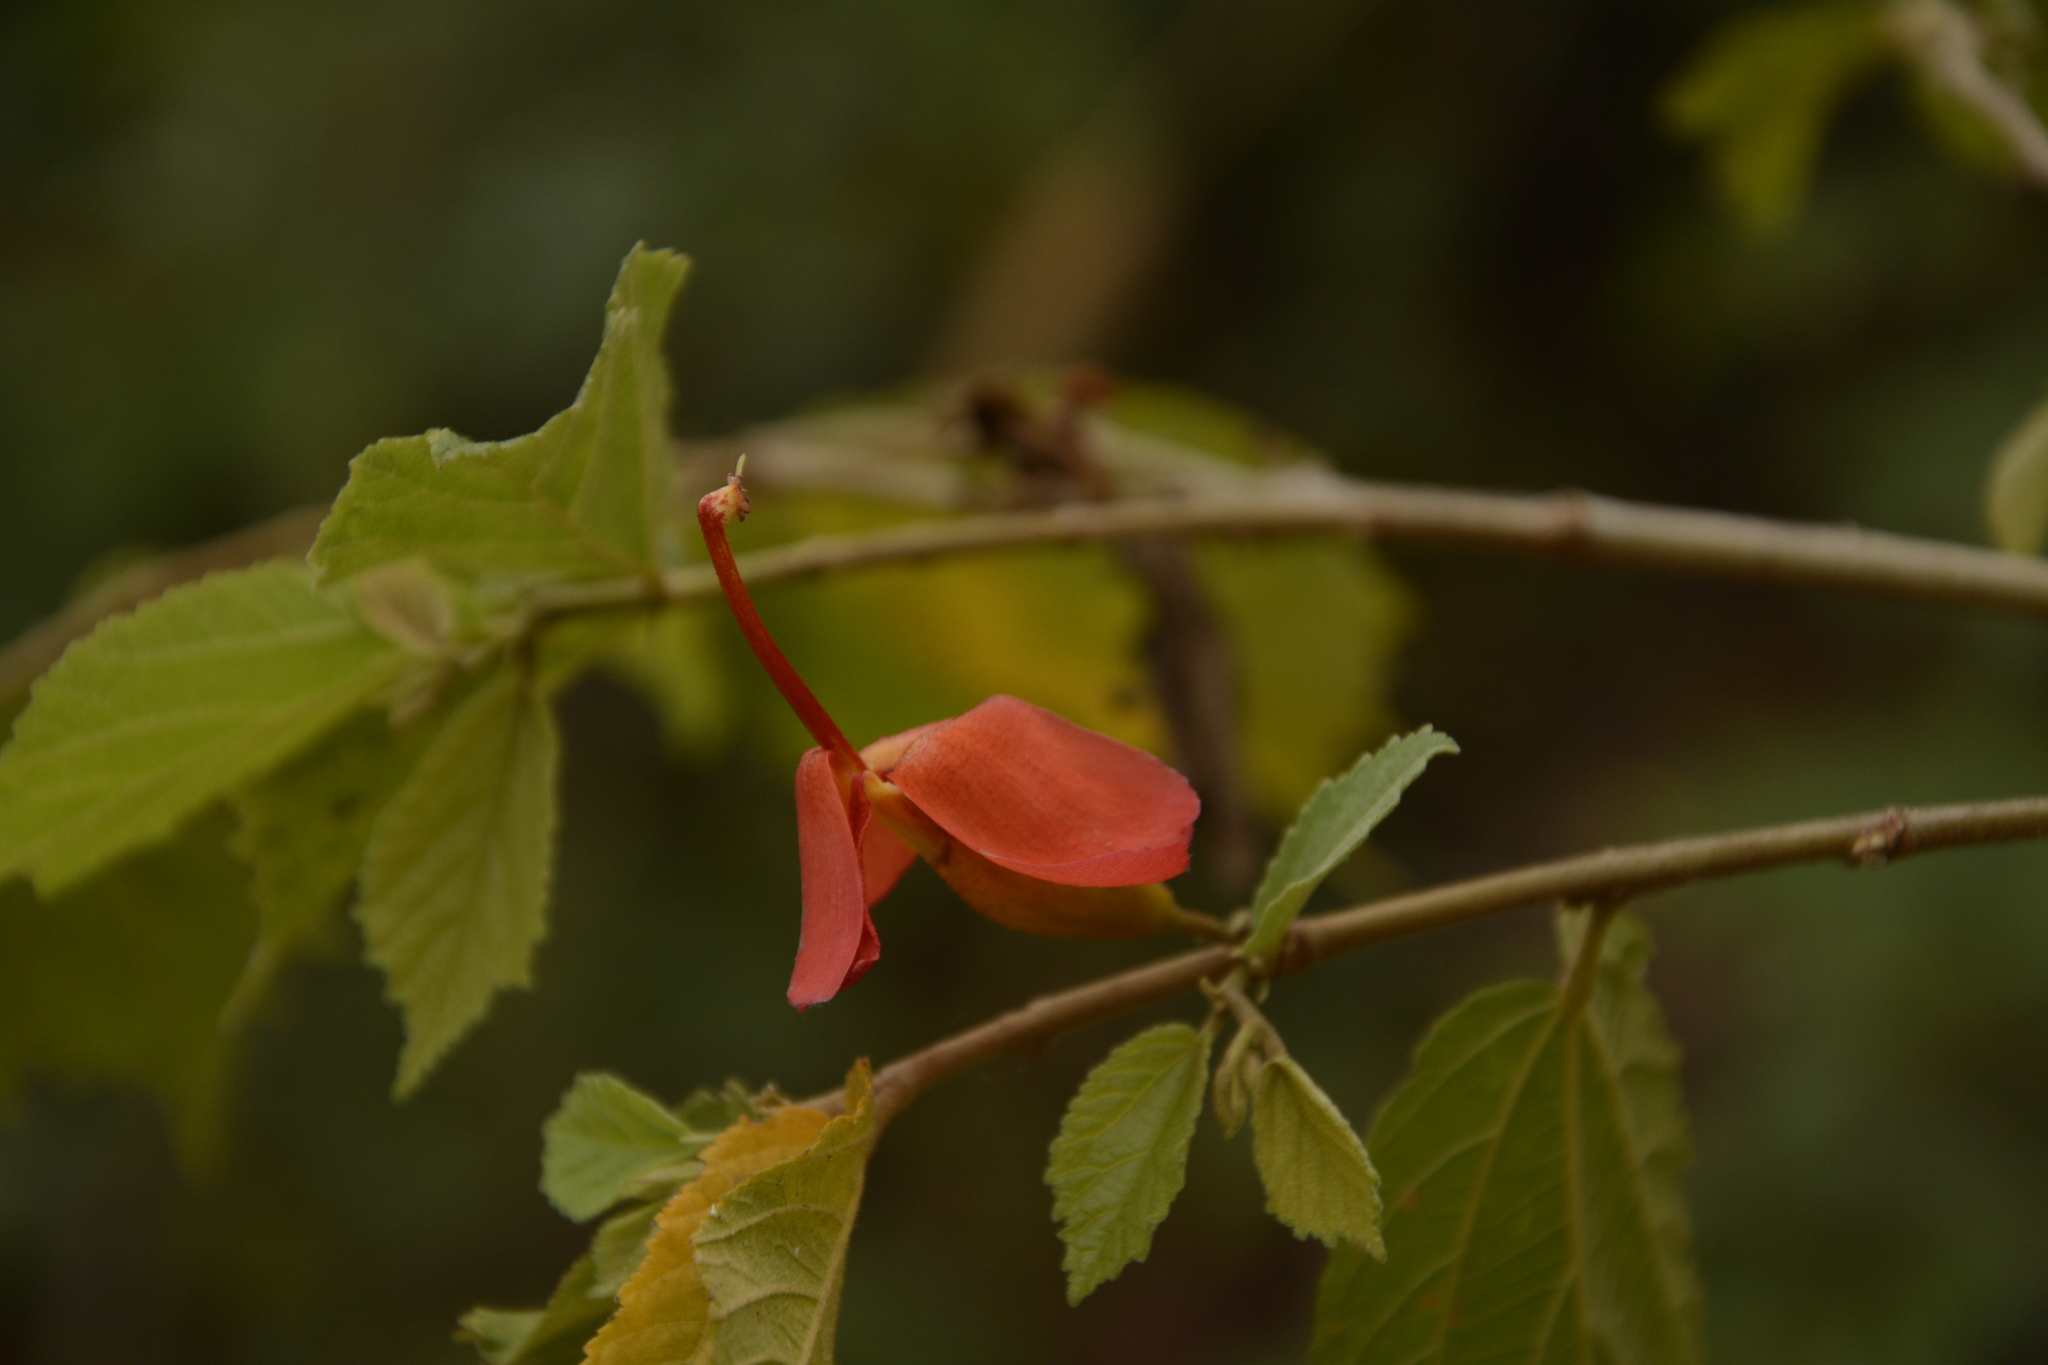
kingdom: Plantae
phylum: Tracheophyta
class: Magnoliopsida
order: Malvales
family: Malvaceae
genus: Helicteres
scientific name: Helicteres isora
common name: East indian screwtree
